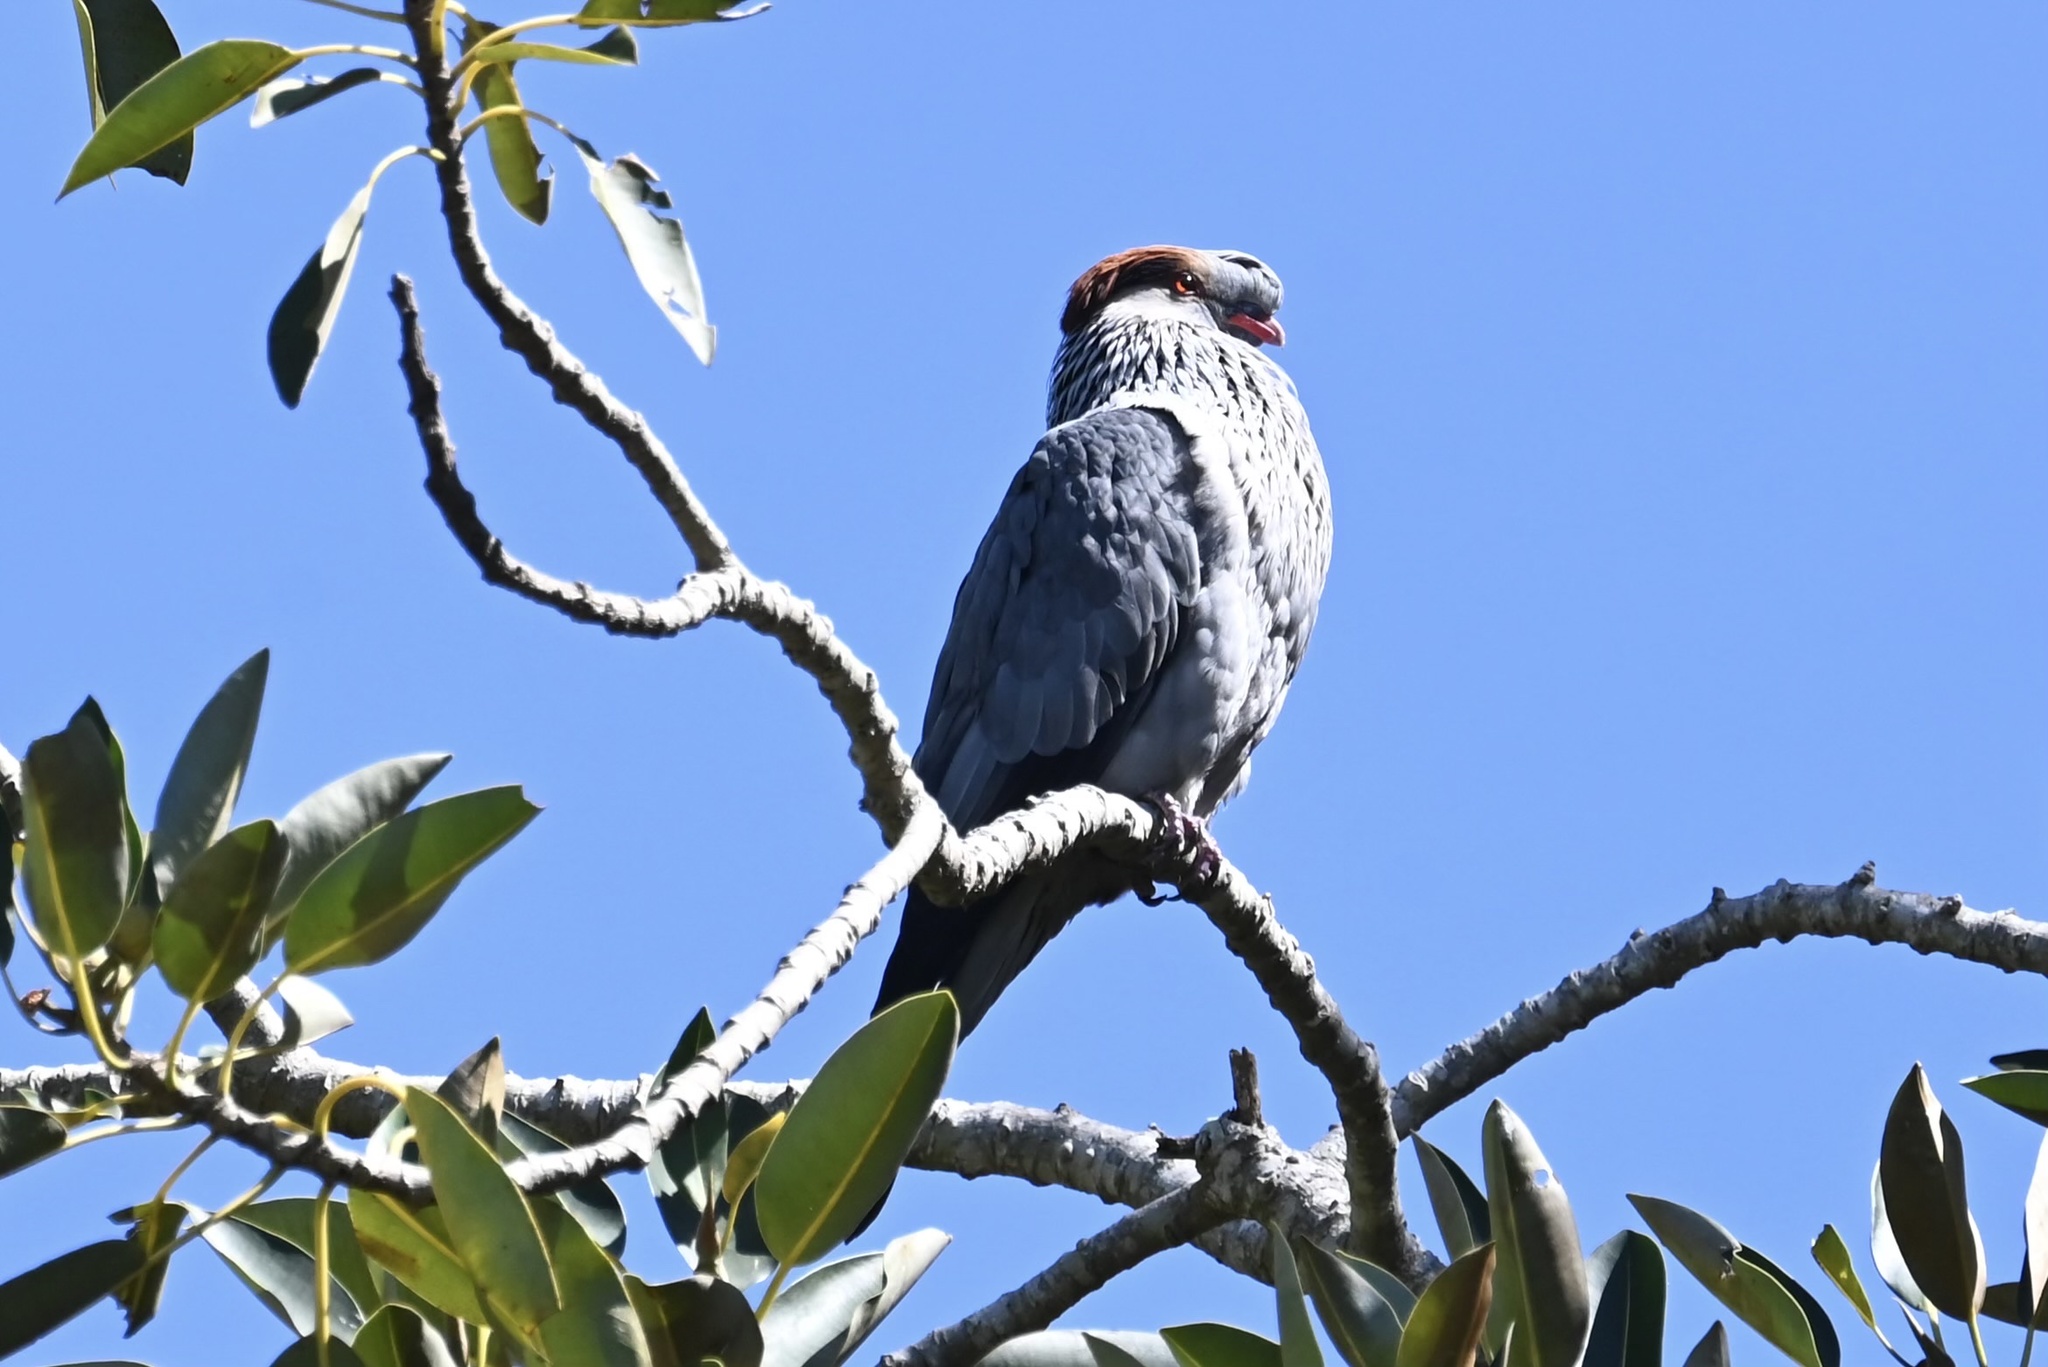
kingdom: Animalia
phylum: Chordata
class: Aves
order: Columbiformes
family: Columbidae
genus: Lopholaimus
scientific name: Lopholaimus antarcticus
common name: Topknot pigeon
